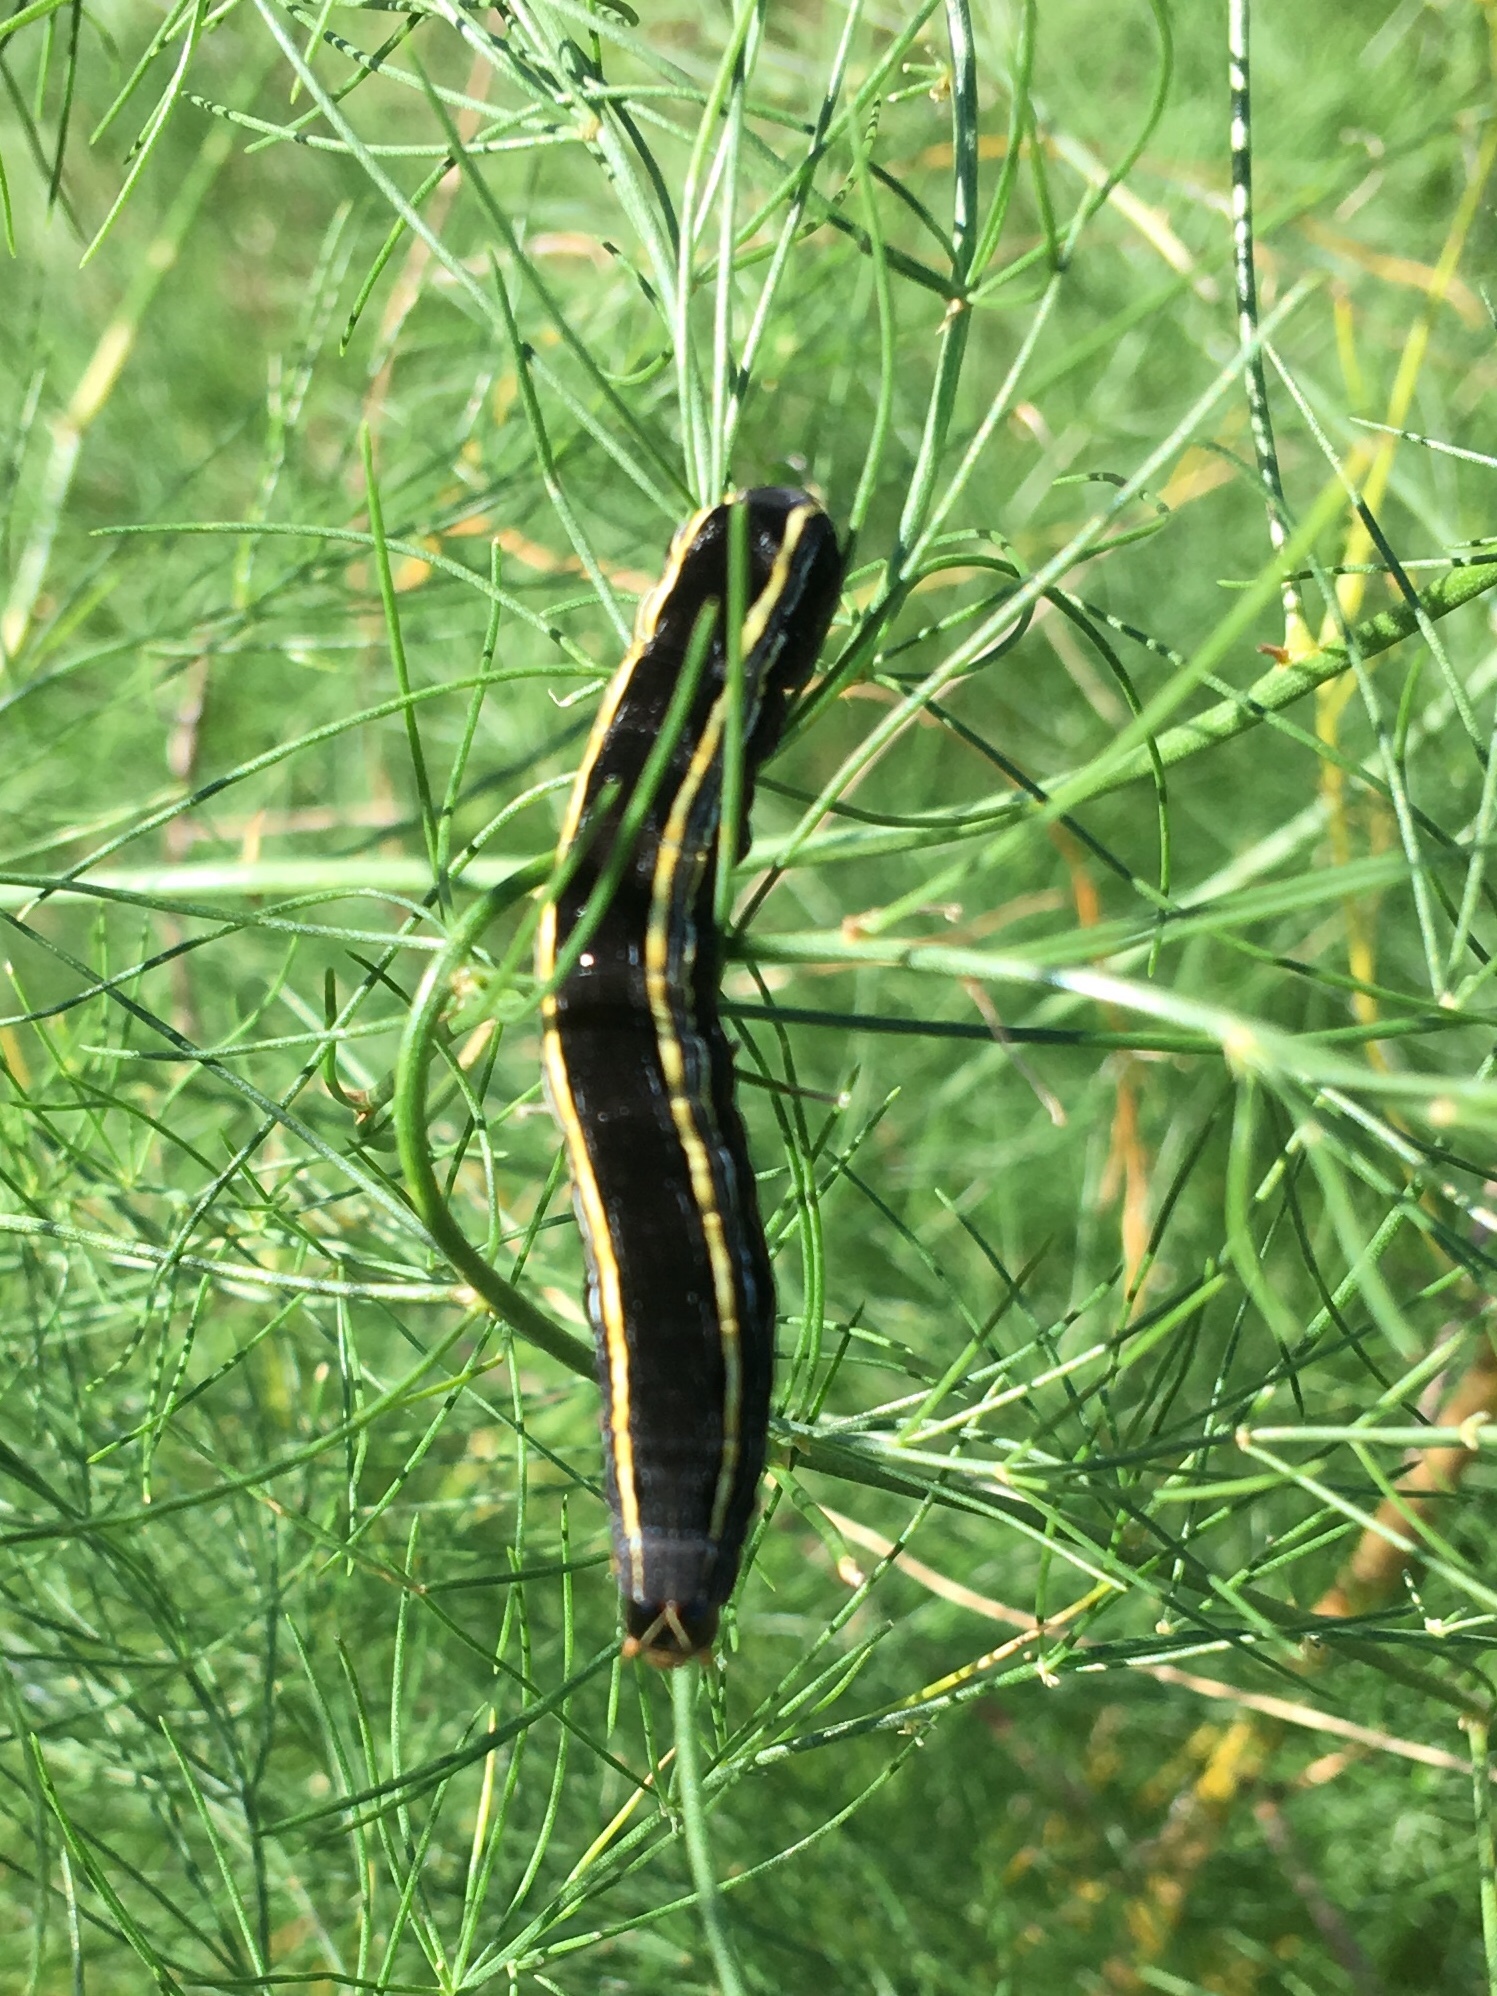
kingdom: Animalia
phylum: Arthropoda
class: Insecta
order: Lepidoptera
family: Noctuidae
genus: Spodoptera
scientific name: Spodoptera ornithogalli
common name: Yellow-striped armyworm
